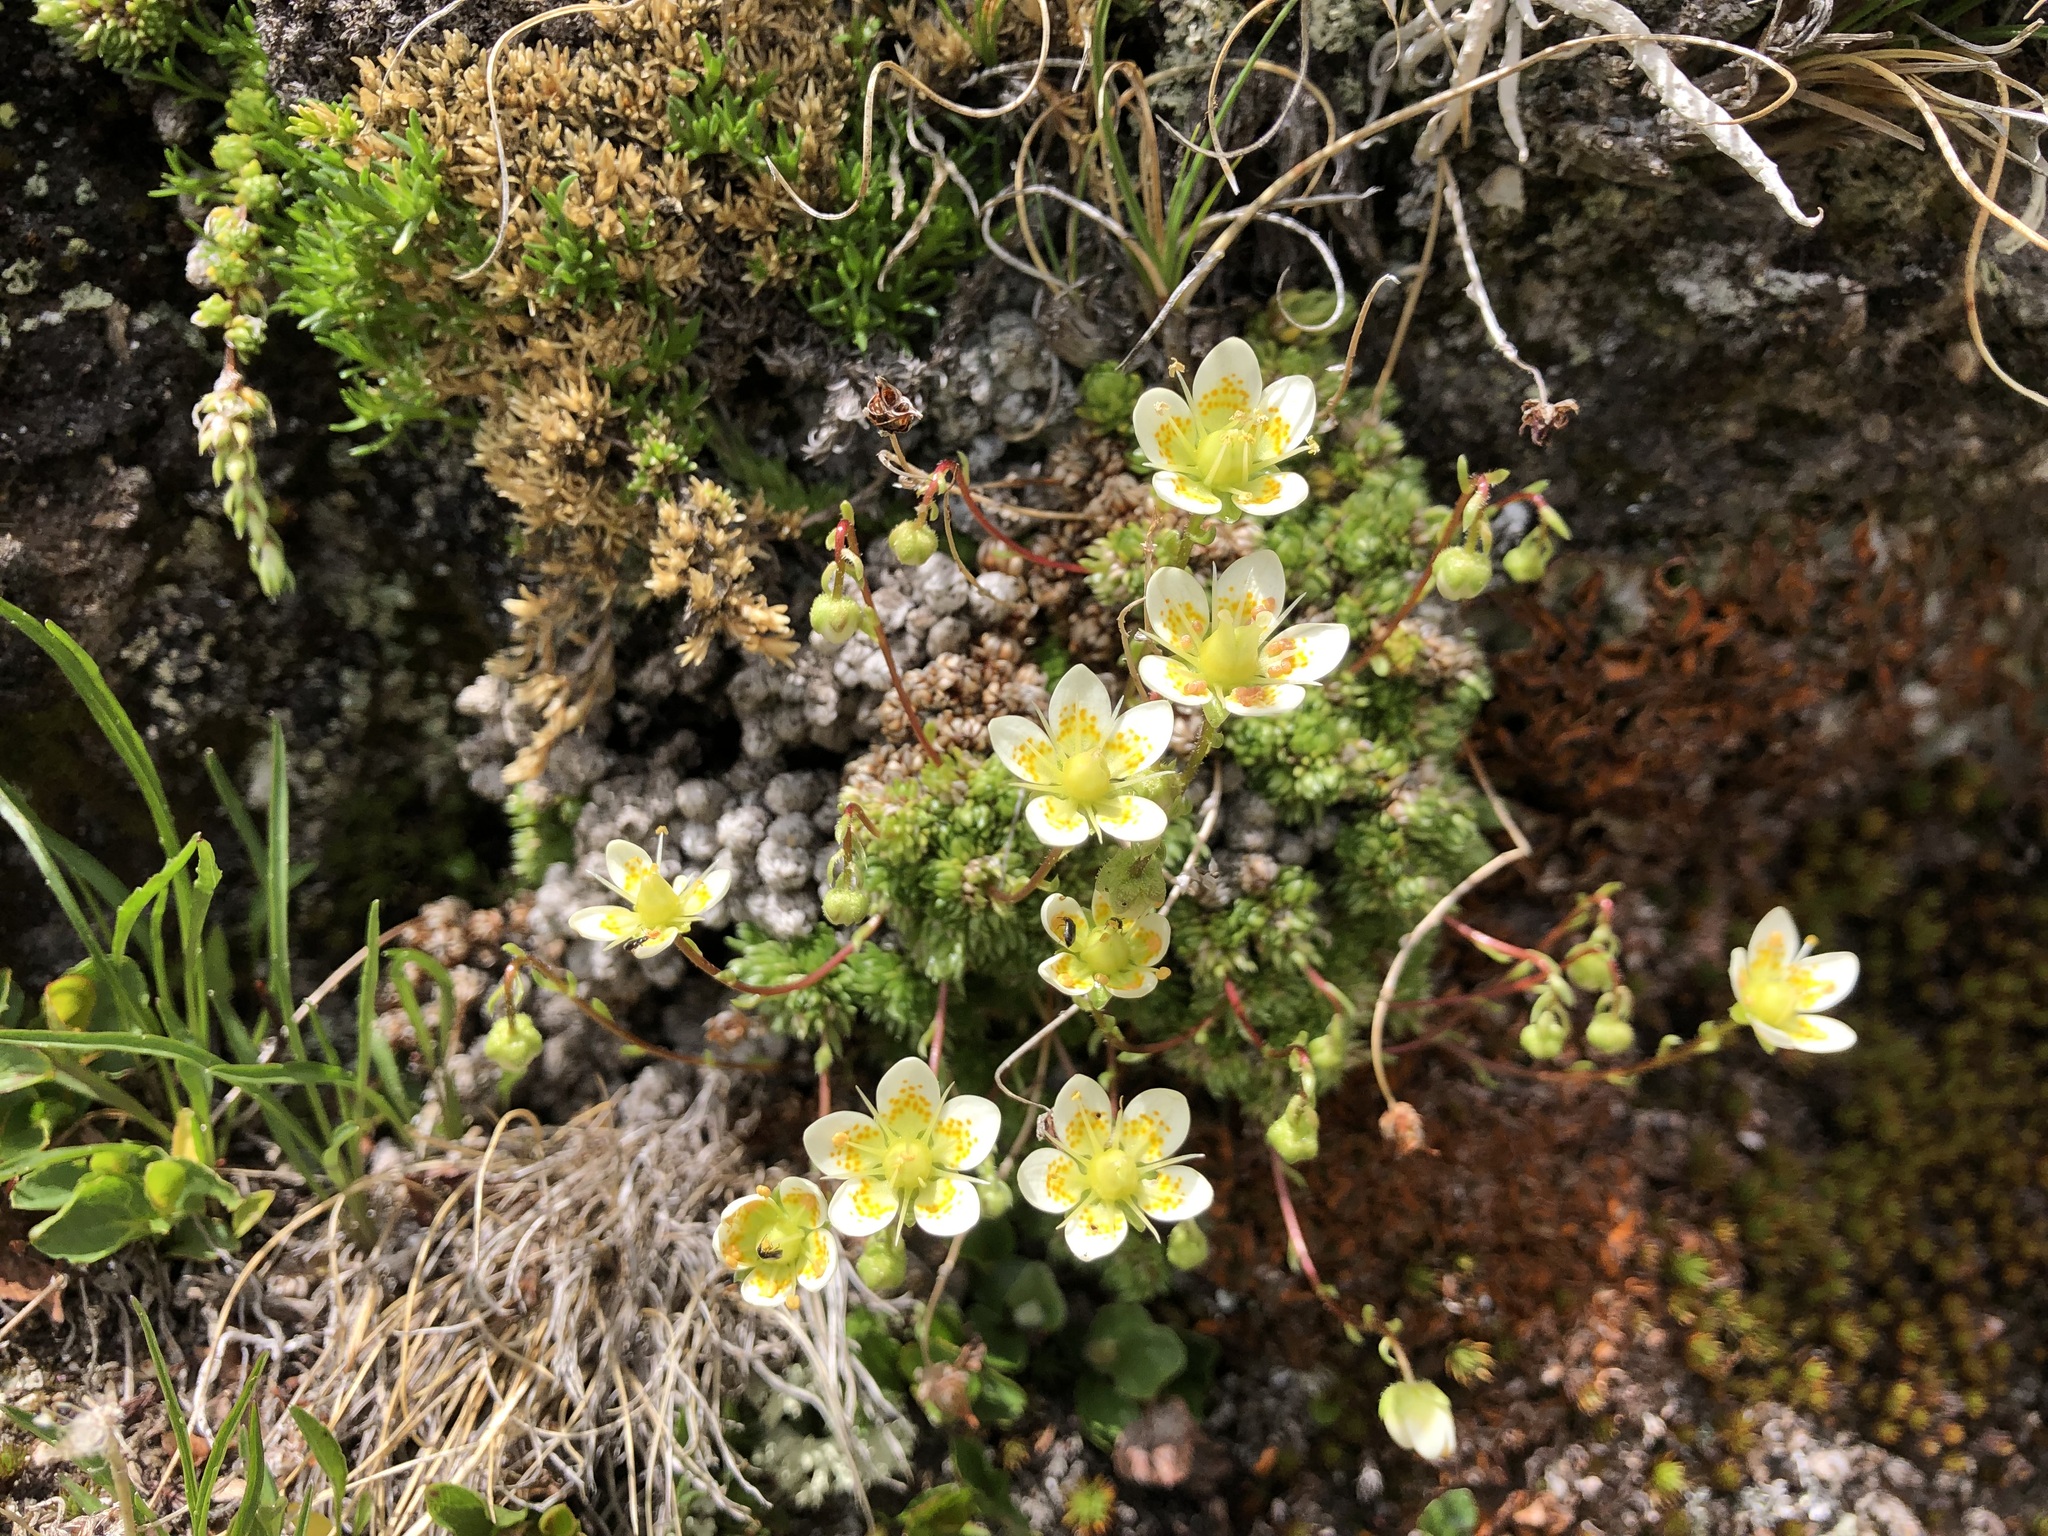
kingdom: Plantae
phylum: Tracheophyta
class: Magnoliopsida
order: Saxifragales
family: Saxifragaceae
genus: Saxifraga
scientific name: Saxifraga bryoides
